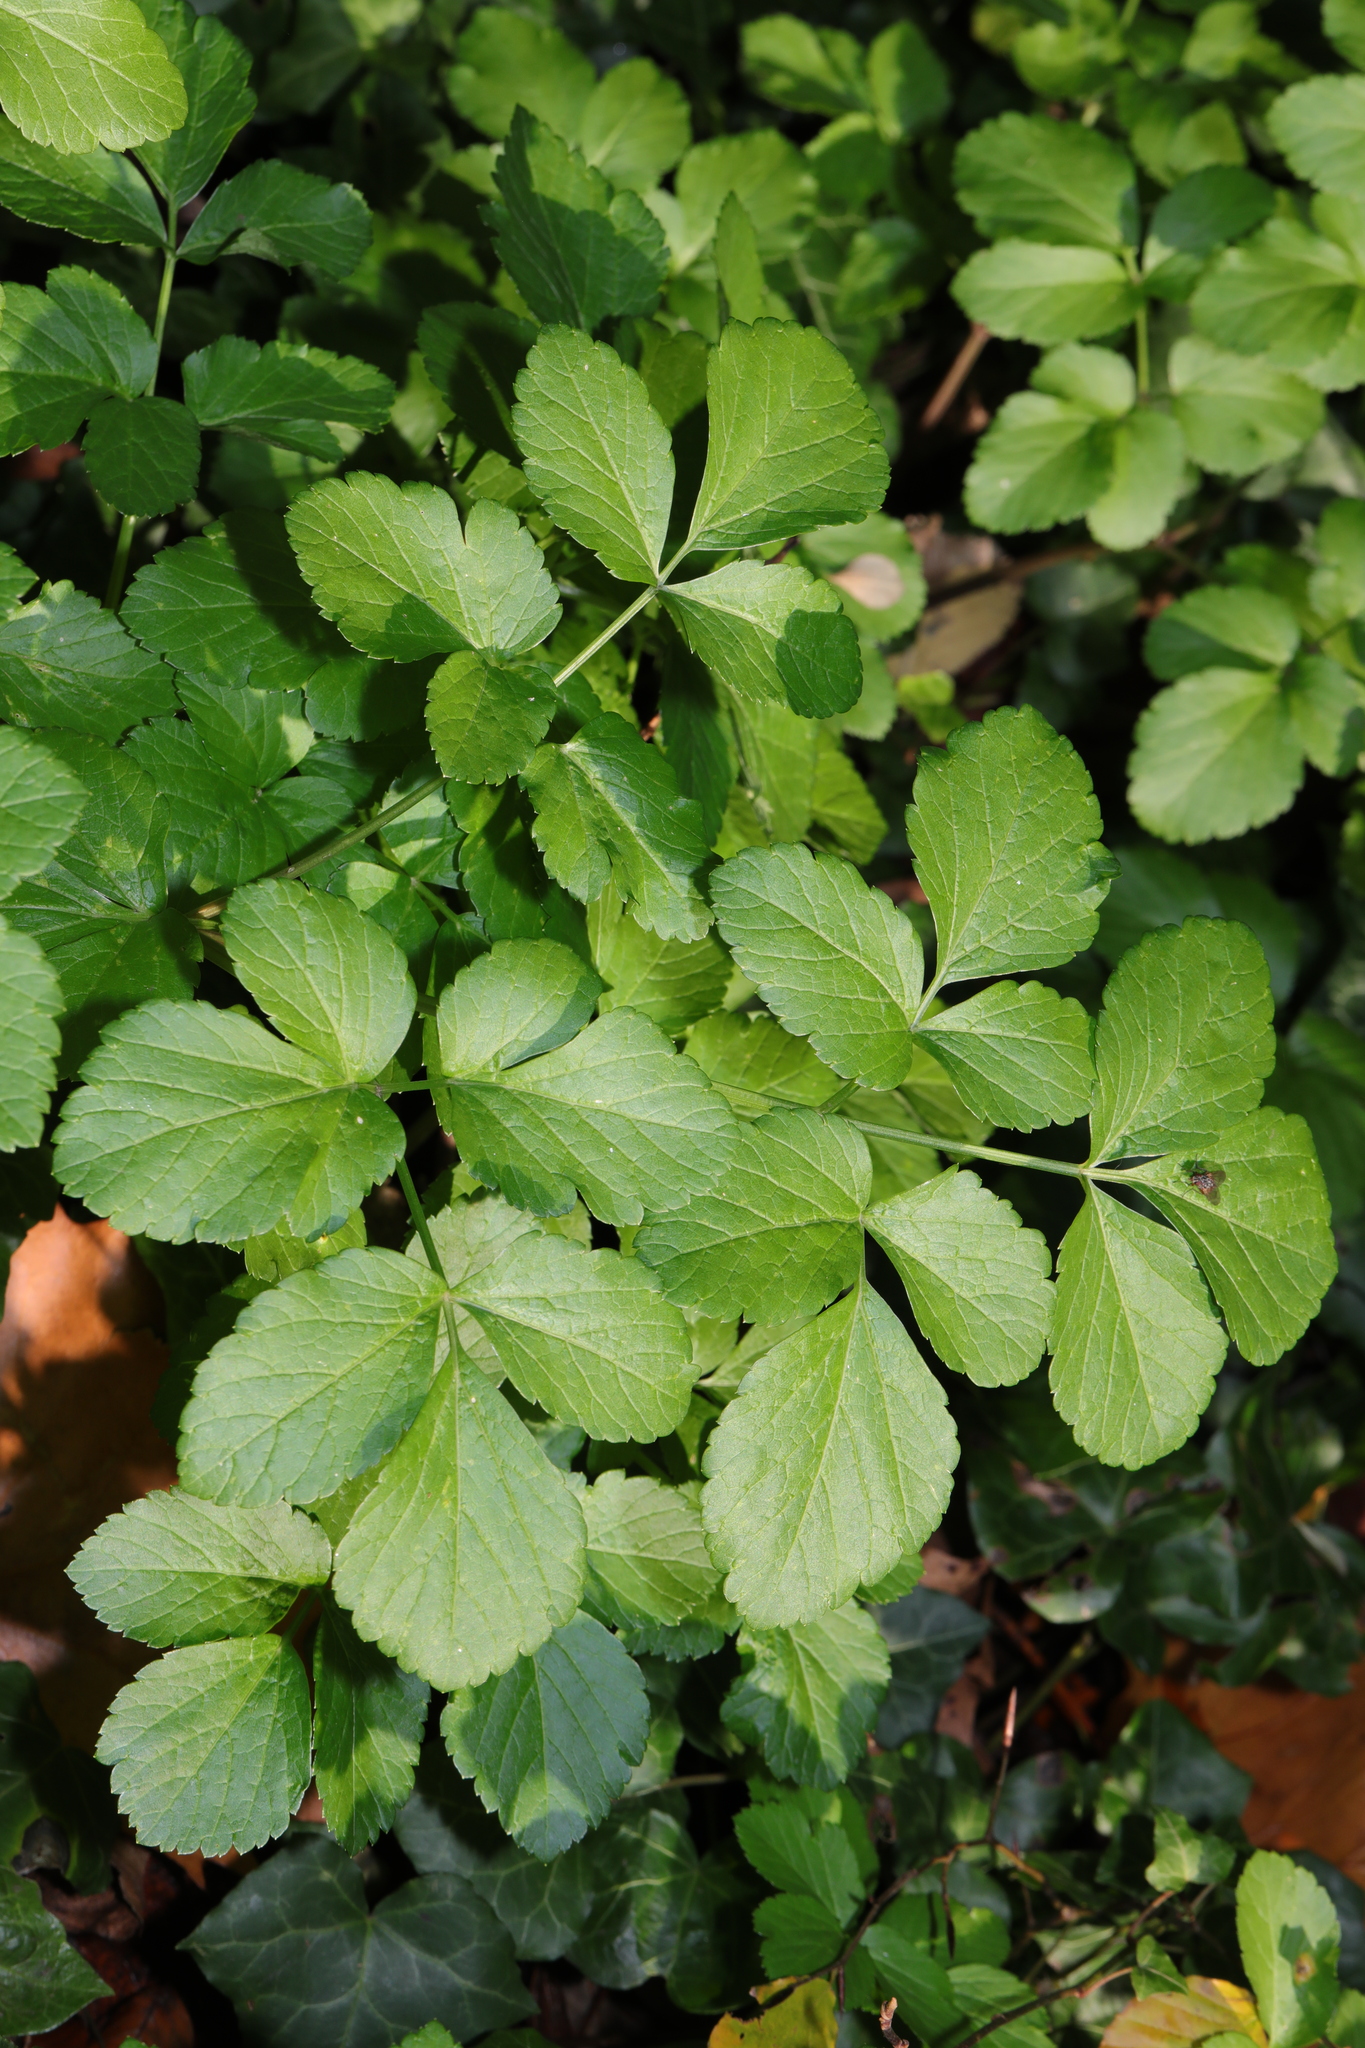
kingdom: Plantae
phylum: Tracheophyta
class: Magnoliopsida
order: Apiales
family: Apiaceae
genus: Smyrnium
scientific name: Smyrnium olusatrum
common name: Alexanders
